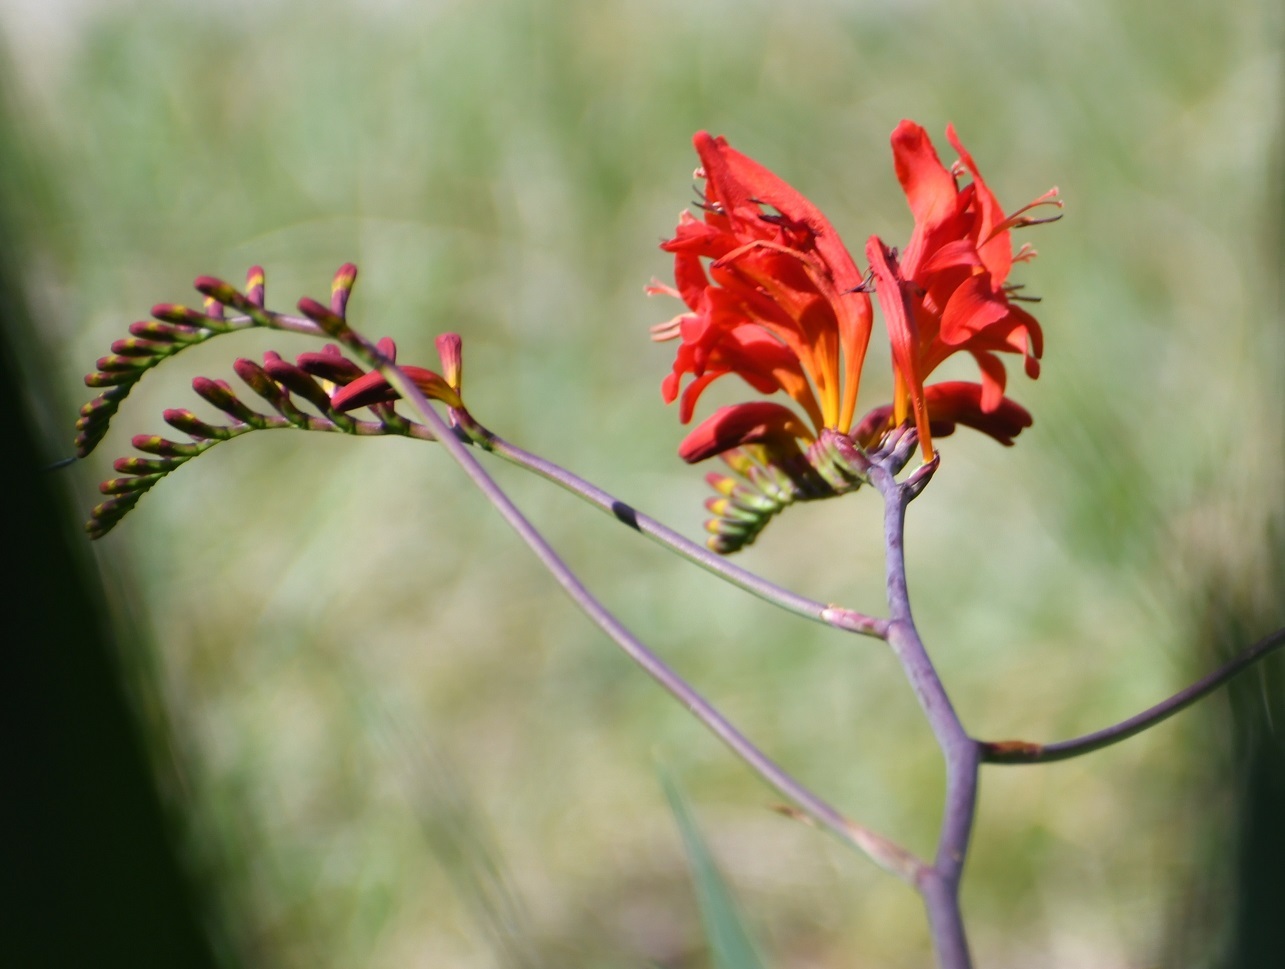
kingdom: Plantae
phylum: Tracheophyta
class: Liliopsida
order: Asparagales
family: Iridaceae
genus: Crocosmia
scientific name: Crocosmia
